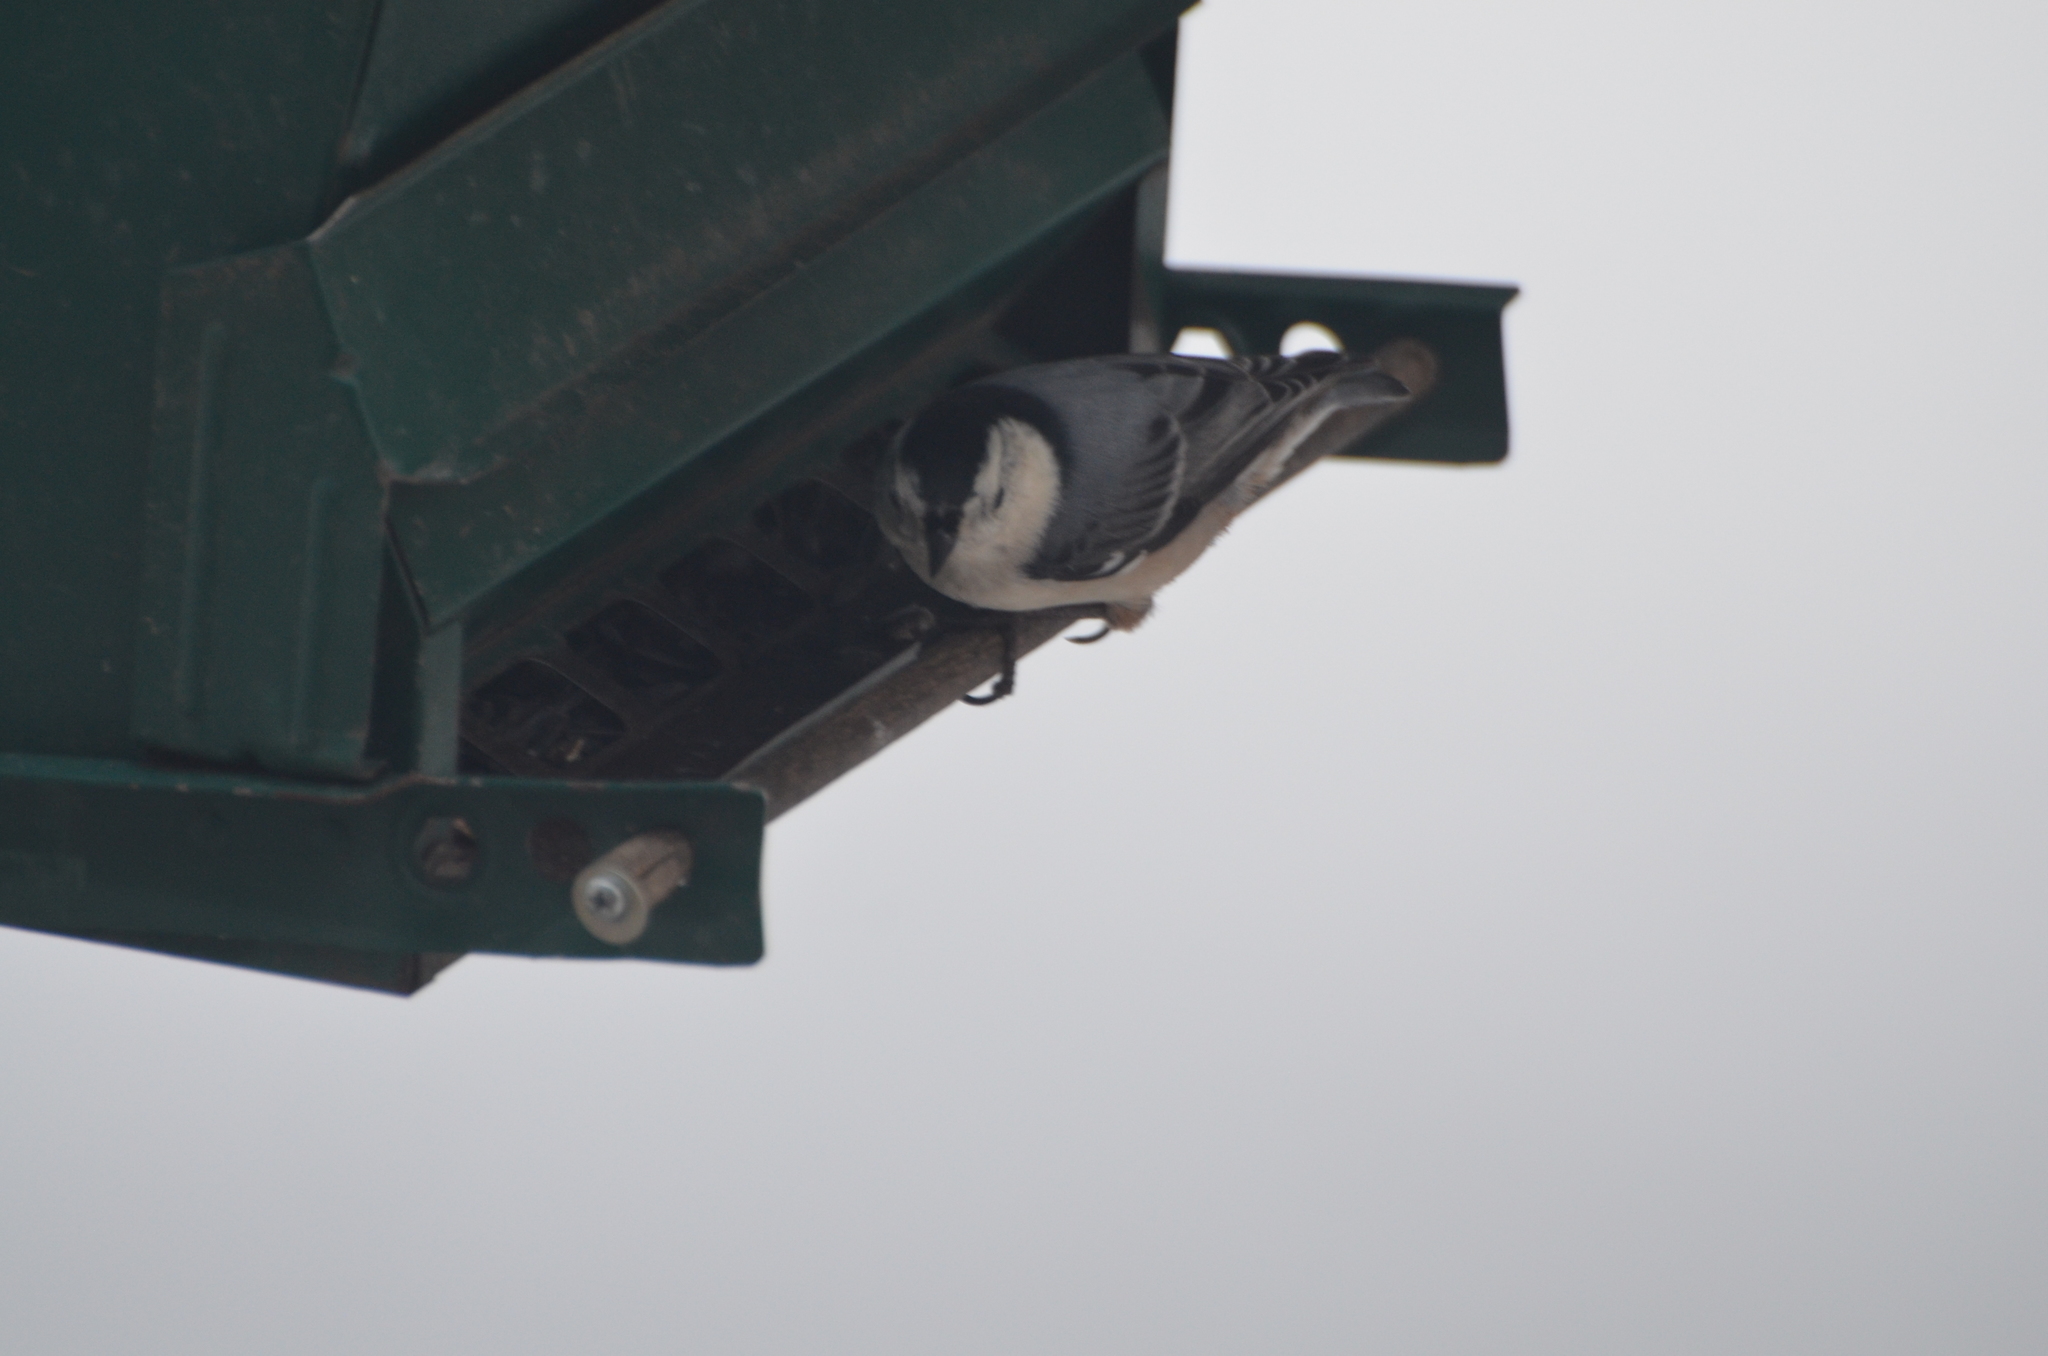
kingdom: Animalia
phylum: Chordata
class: Aves
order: Passeriformes
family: Sittidae
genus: Sitta
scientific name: Sitta carolinensis
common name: White-breasted nuthatch
